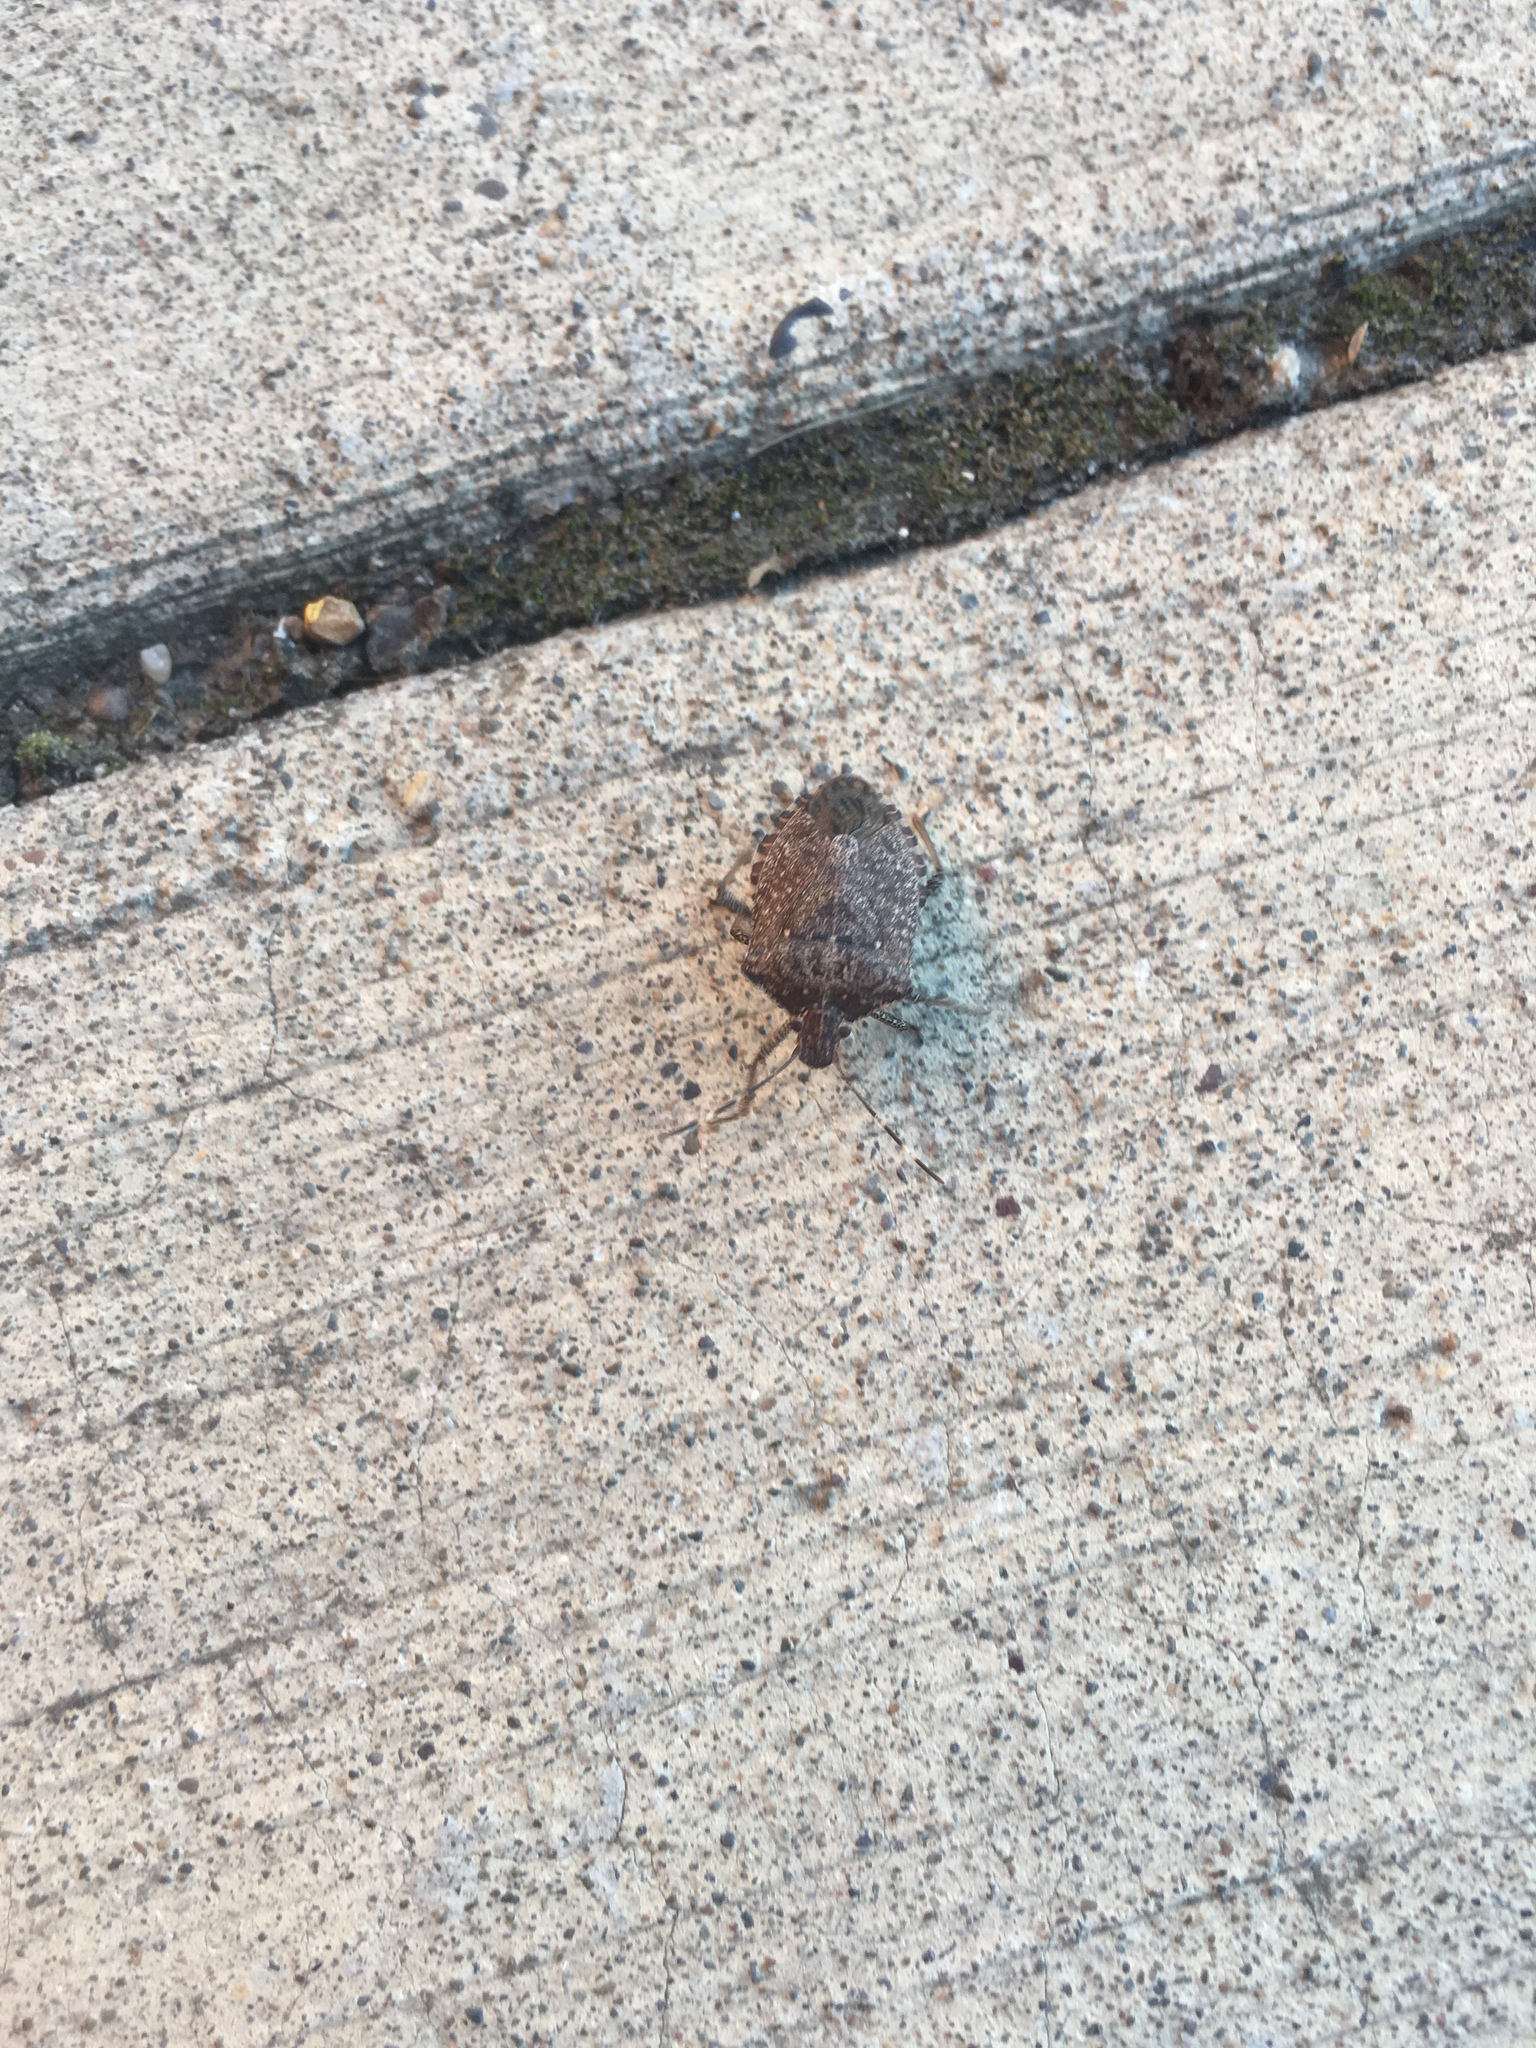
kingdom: Animalia
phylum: Arthropoda
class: Insecta
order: Hemiptera
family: Pentatomidae
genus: Halyomorpha
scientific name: Halyomorpha halys
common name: Brown marmorated stink bug
